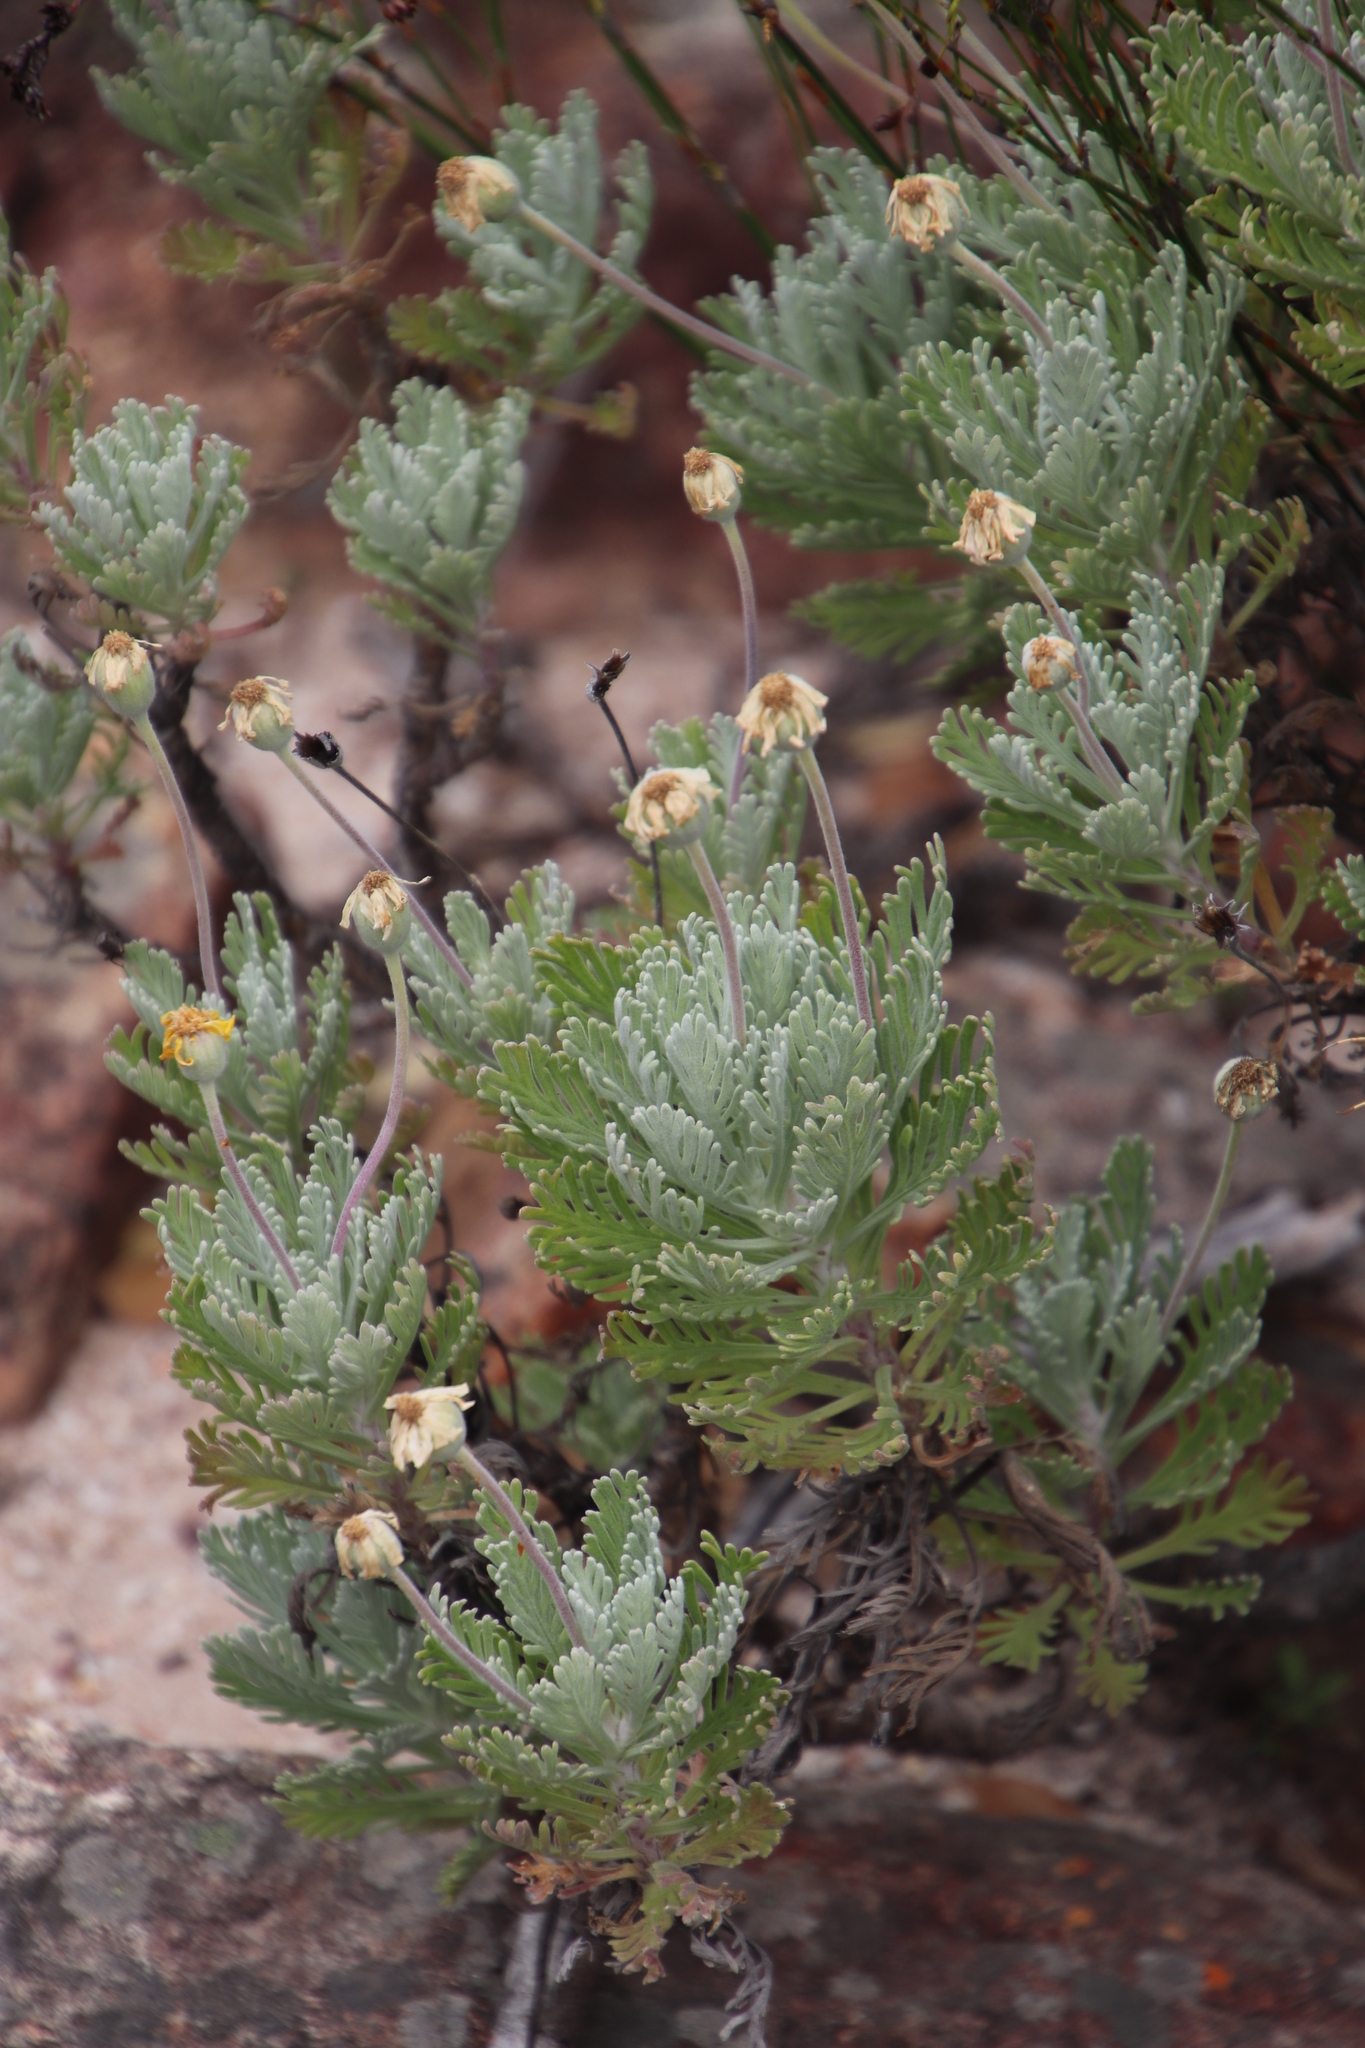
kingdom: Plantae
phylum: Tracheophyta
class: Magnoliopsida
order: Asterales
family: Asteraceae
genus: Euryops
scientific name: Euryops pectinatus
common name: Gray-leaf euryops
